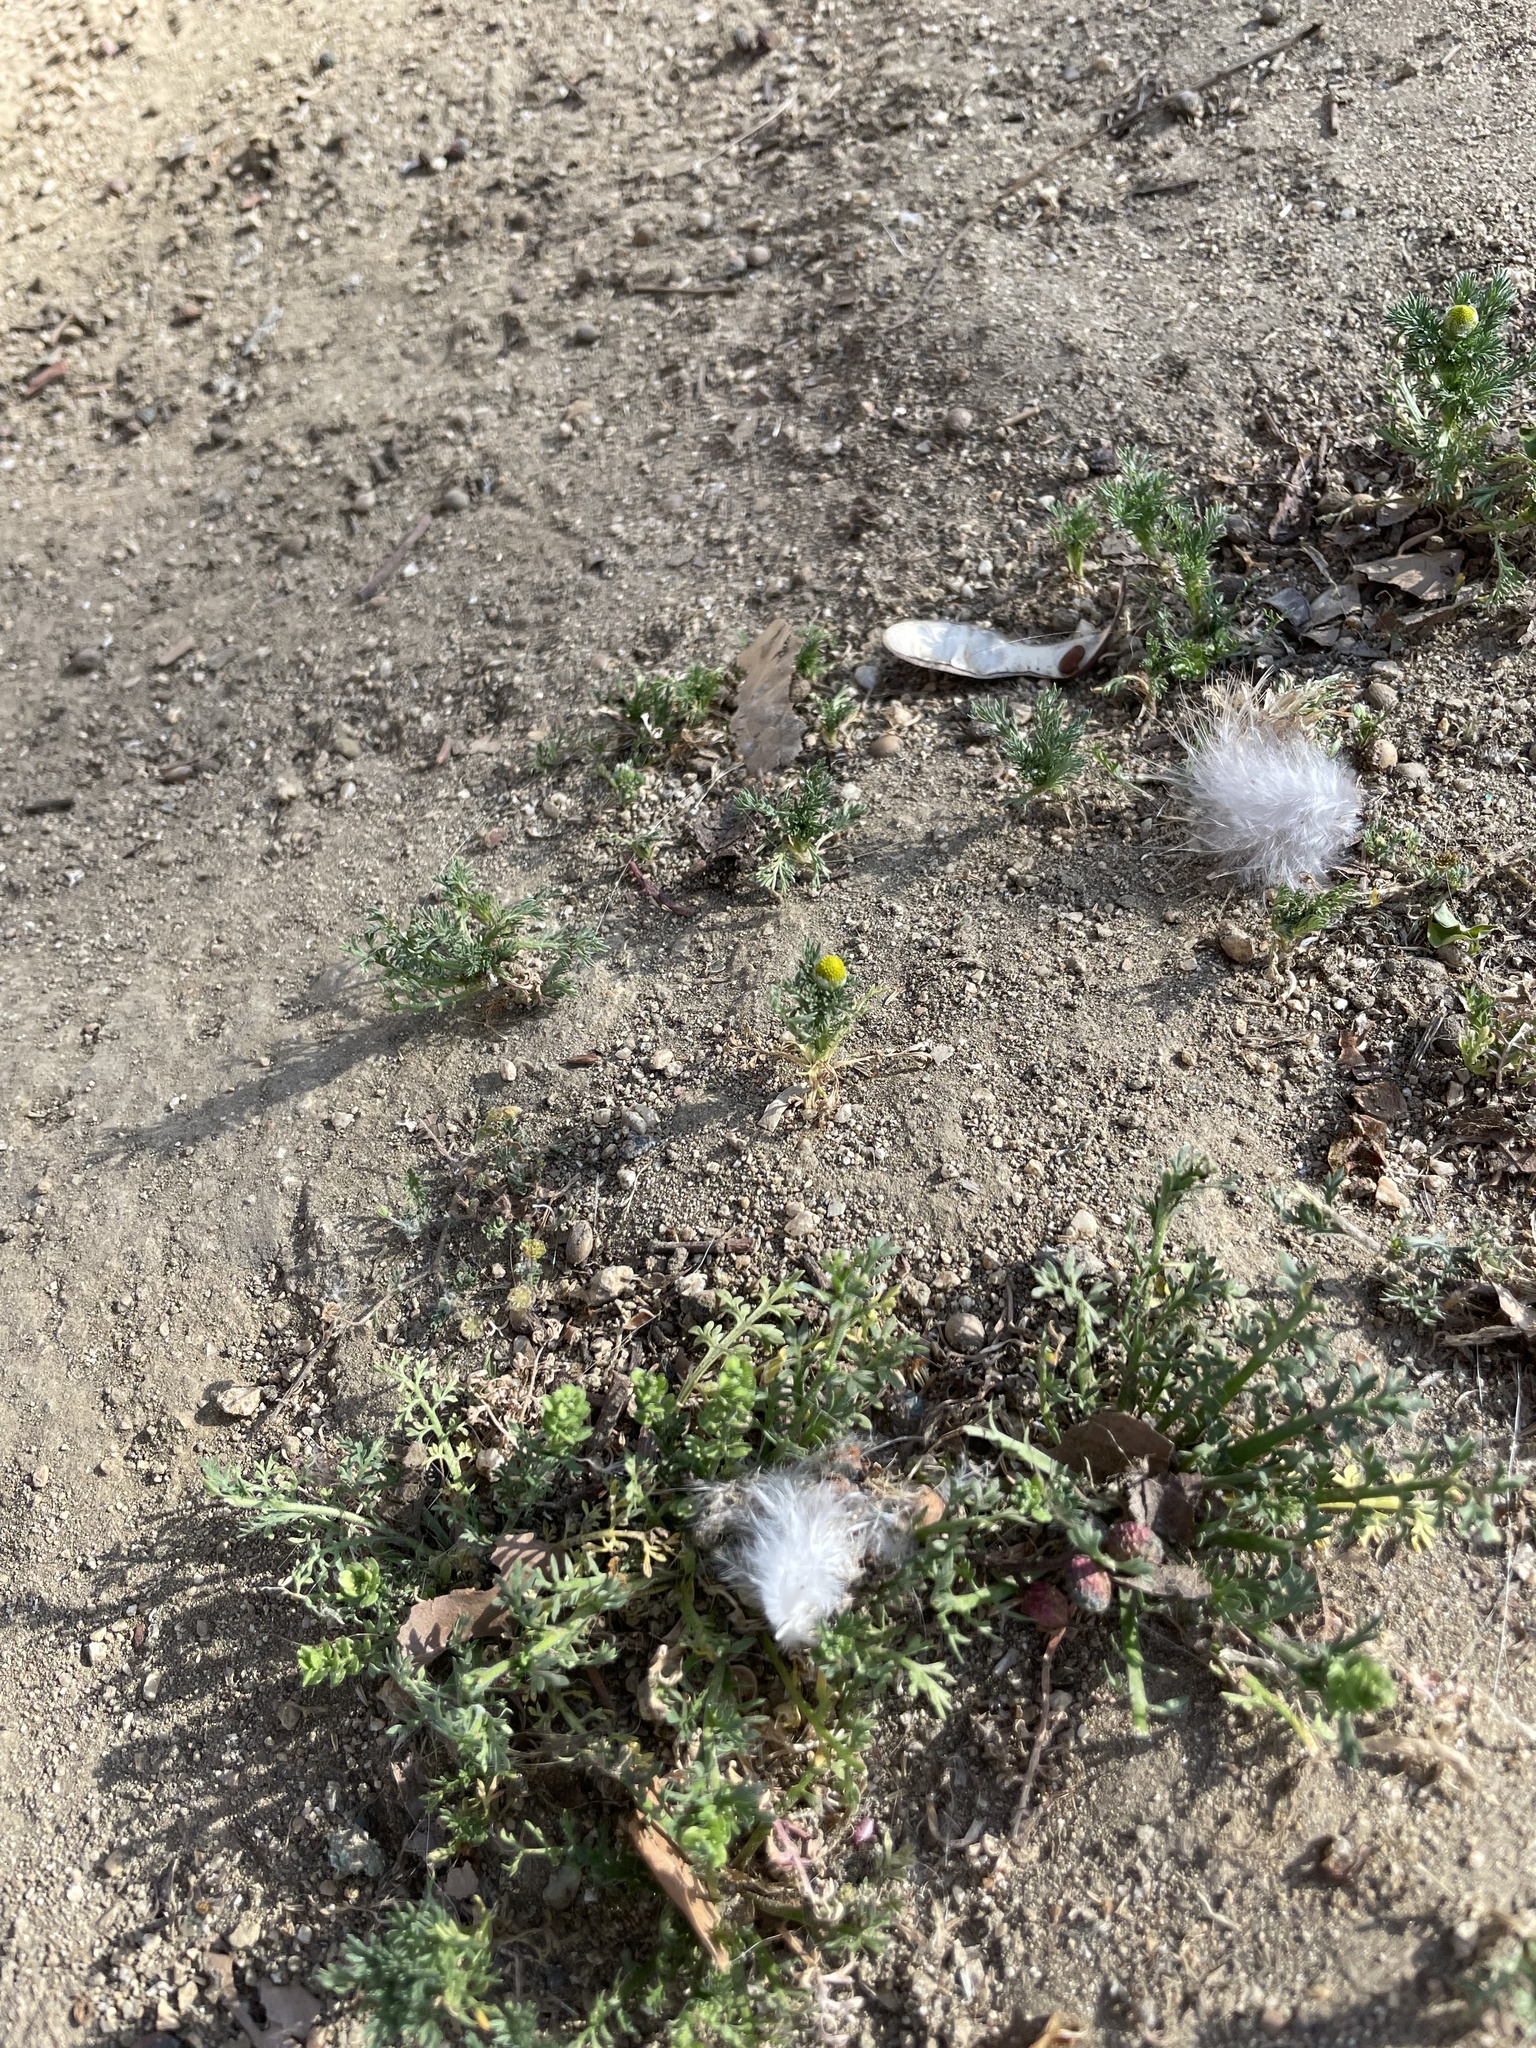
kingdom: Plantae
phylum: Tracheophyta
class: Magnoliopsida
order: Asterales
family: Asteraceae
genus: Matricaria
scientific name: Matricaria discoidea
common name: Disc mayweed
